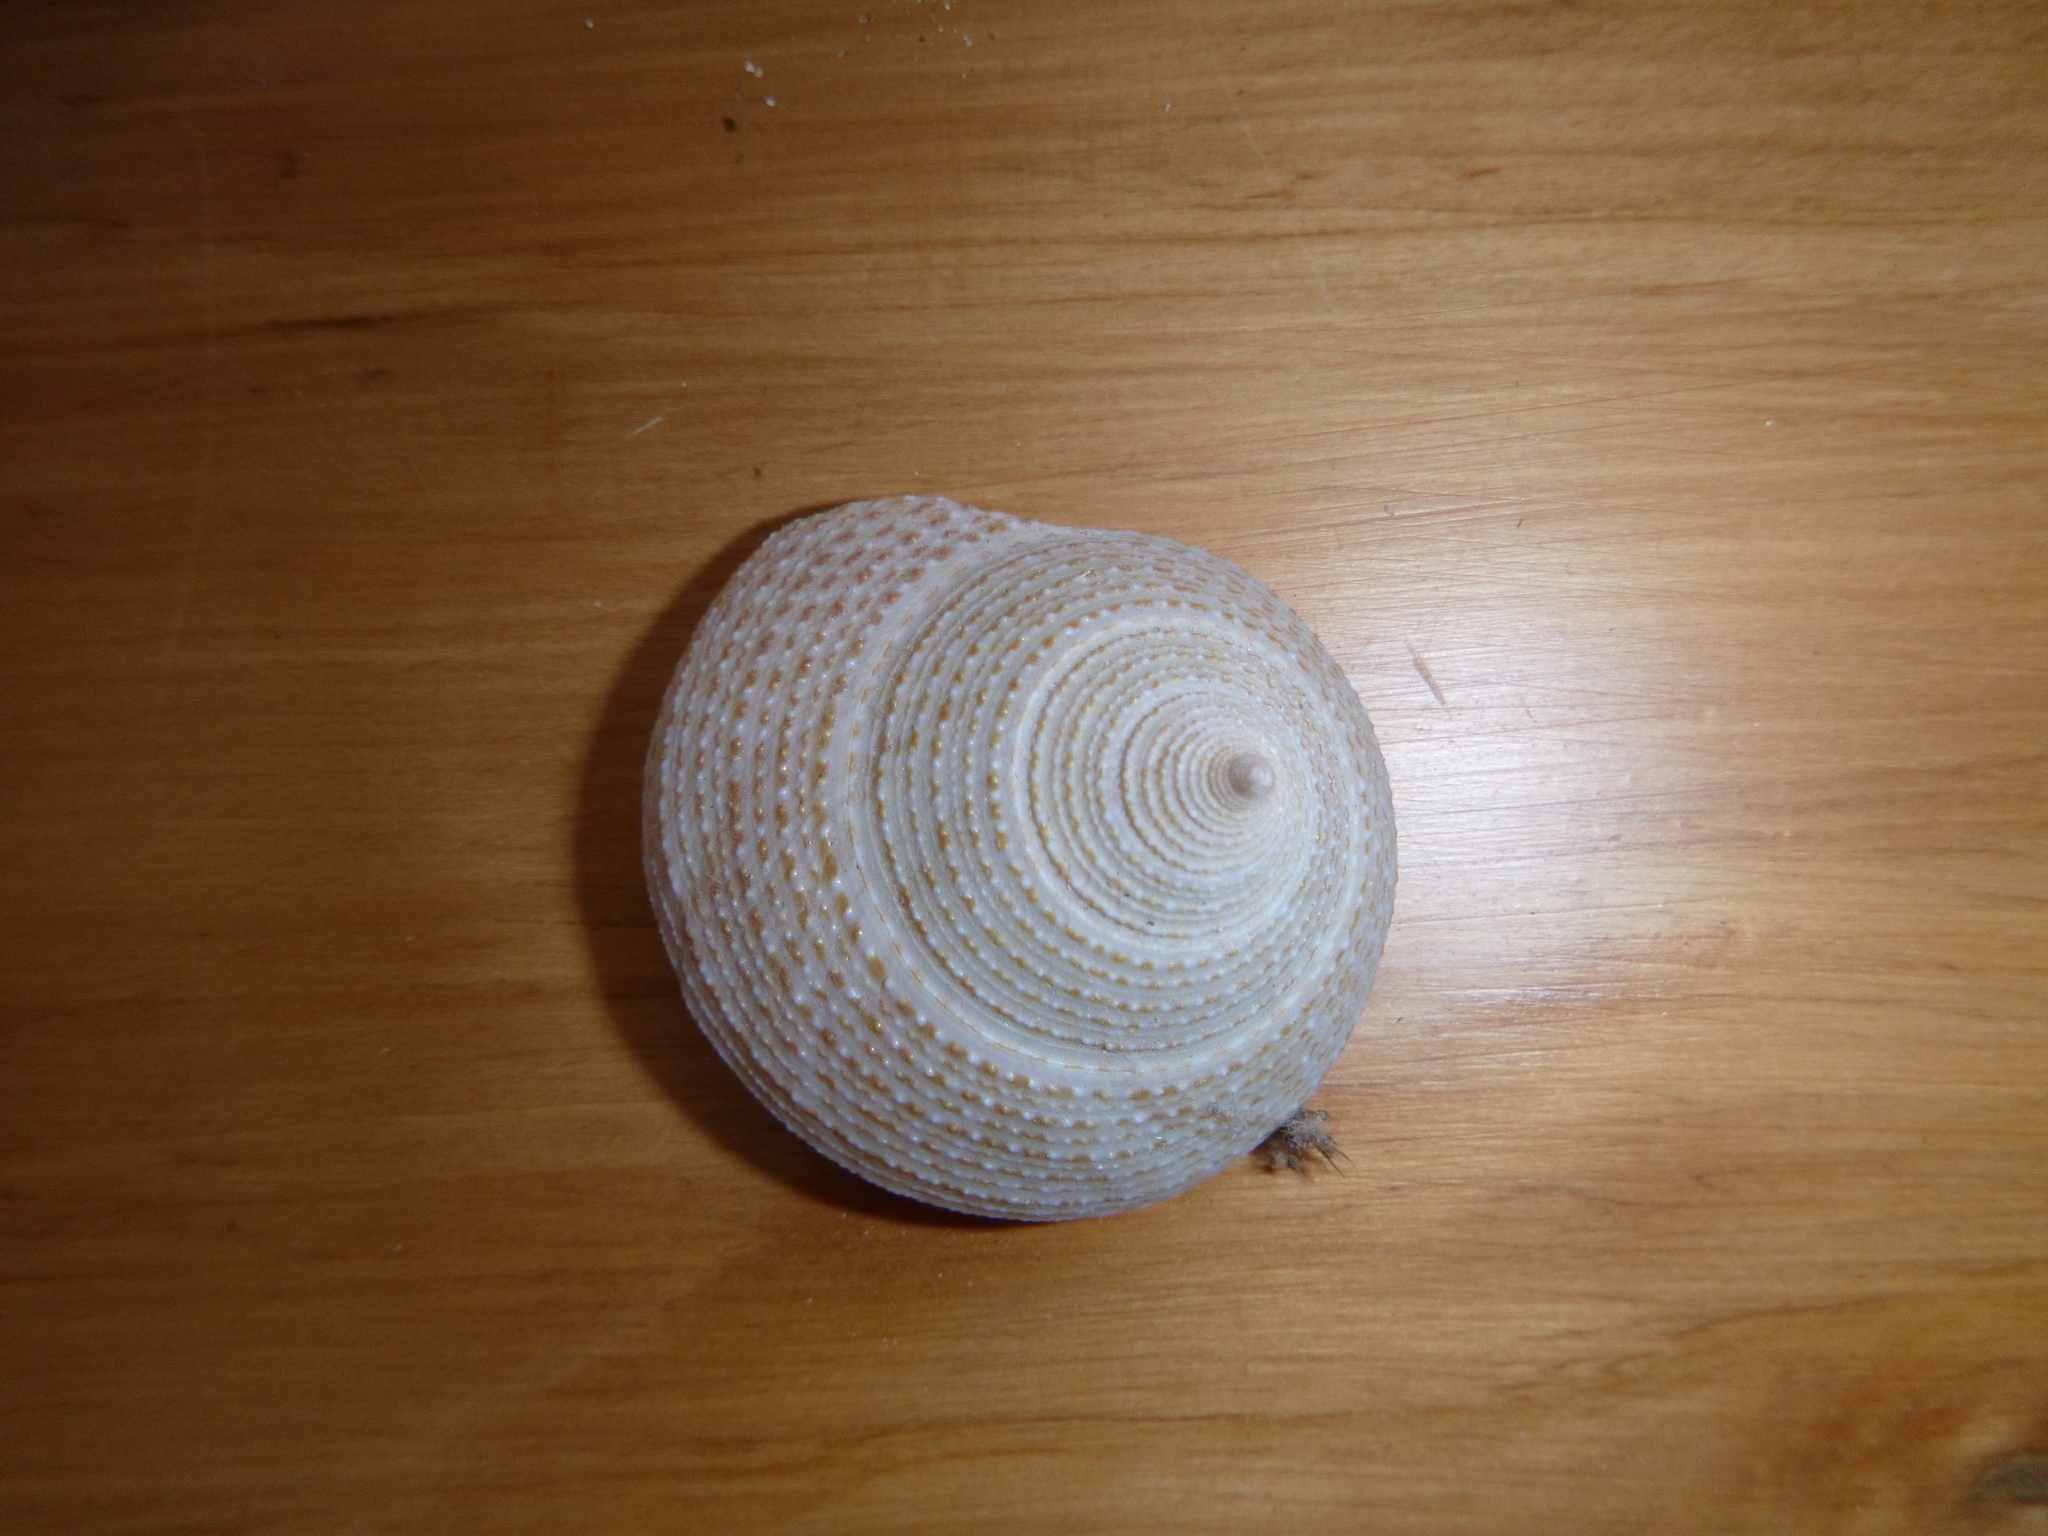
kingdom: Animalia
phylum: Mollusca
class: Gastropoda
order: Trochida
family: Calliostomatidae
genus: Maurea
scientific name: Maurea selecta
